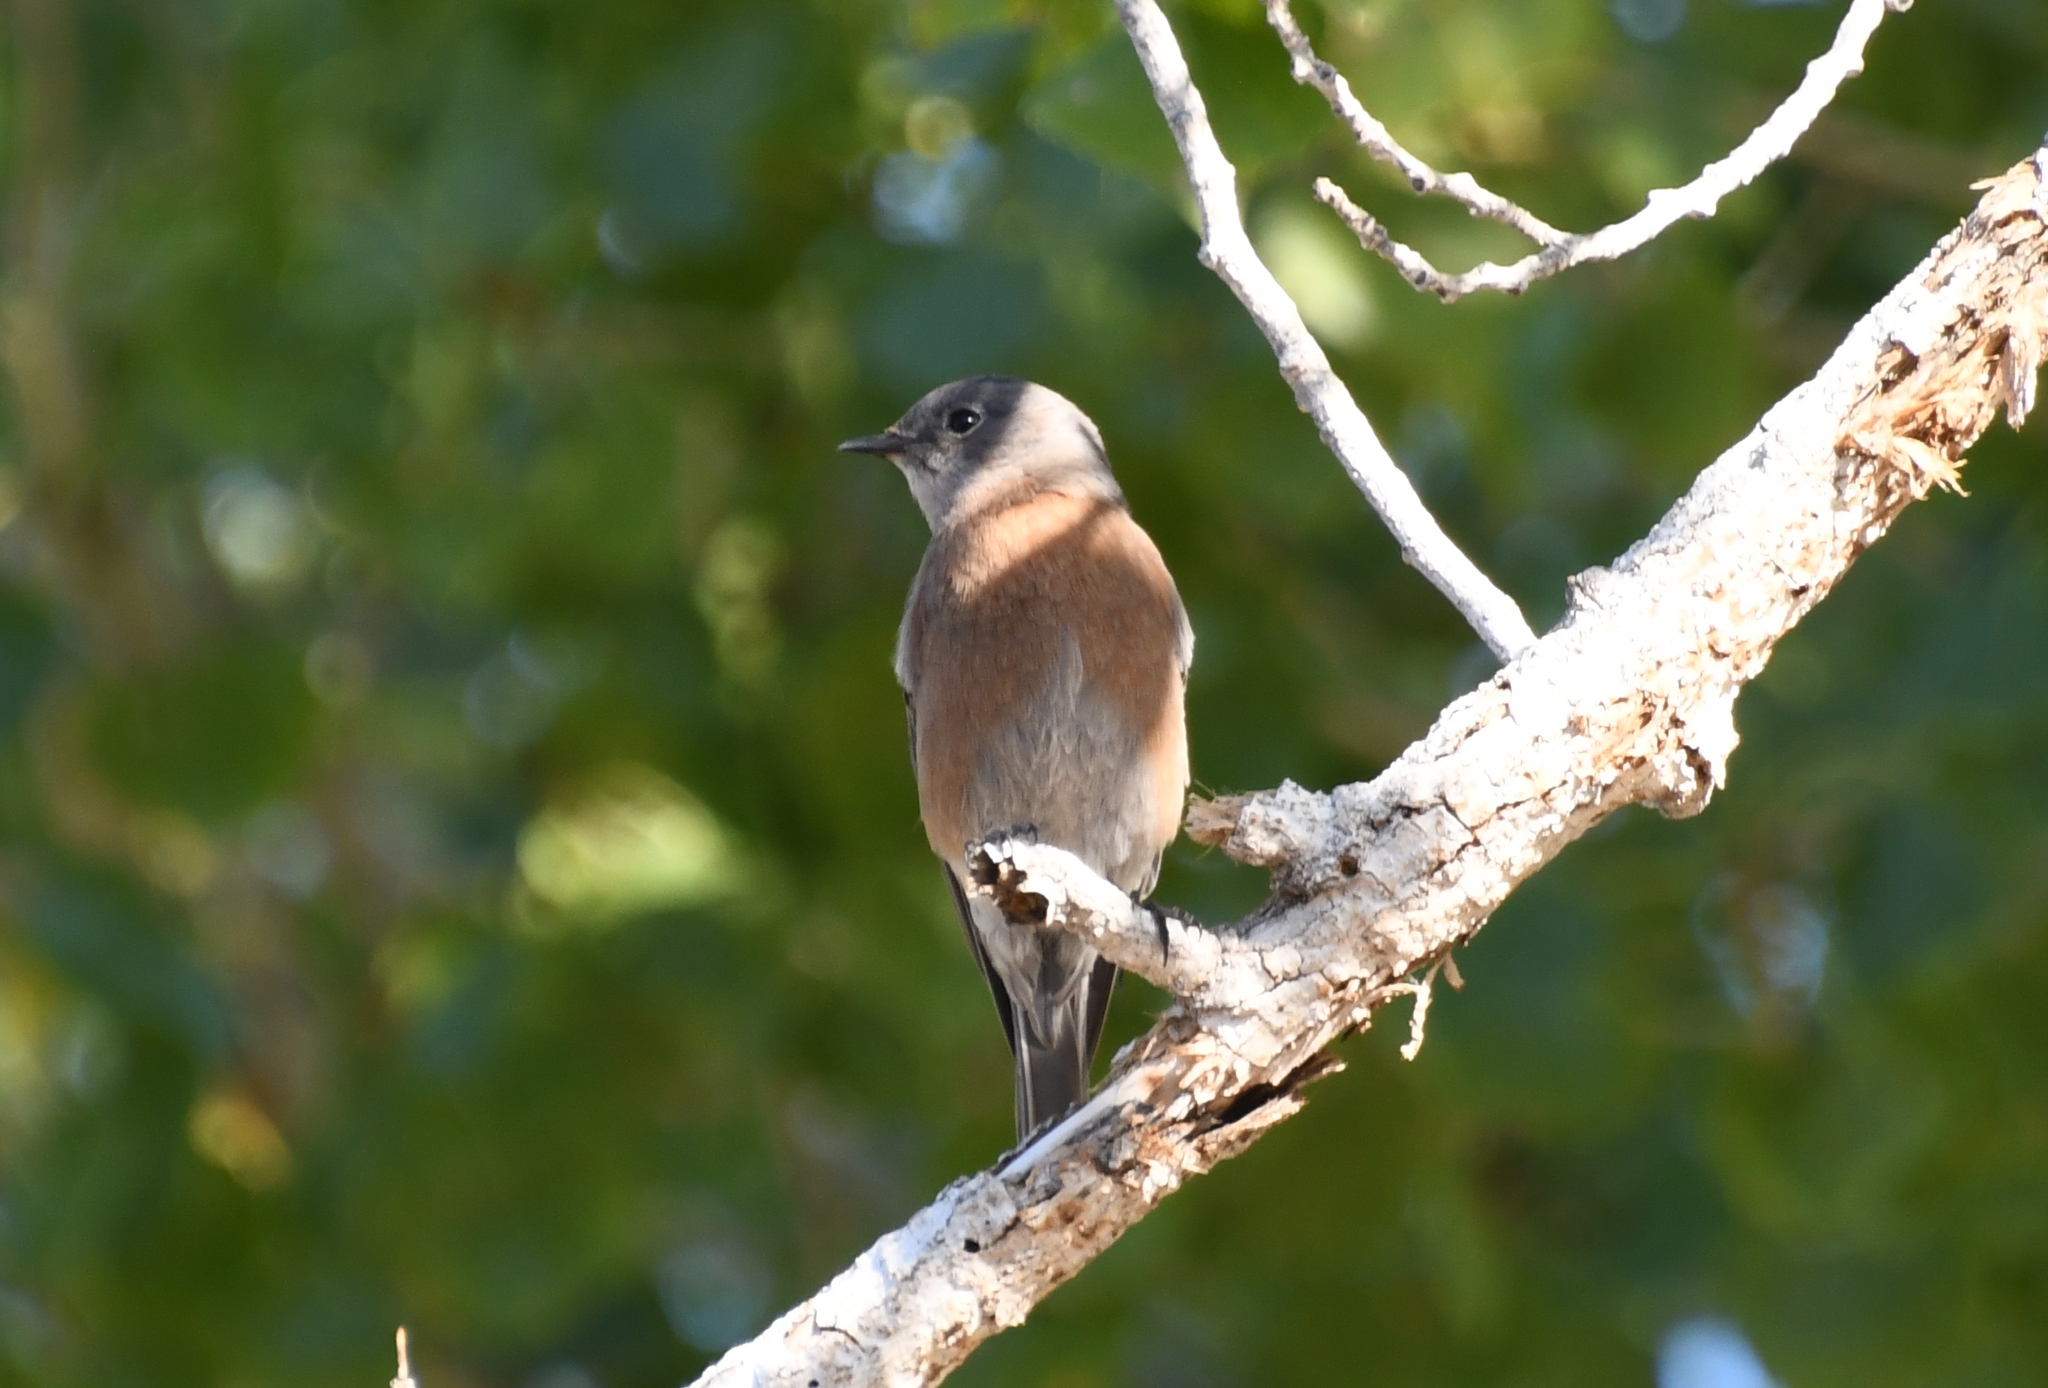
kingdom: Animalia
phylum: Chordata
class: Aves
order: Passeriformes
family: Turdidae
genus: Sialia
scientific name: Sialia mexicana
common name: Western bluebird
